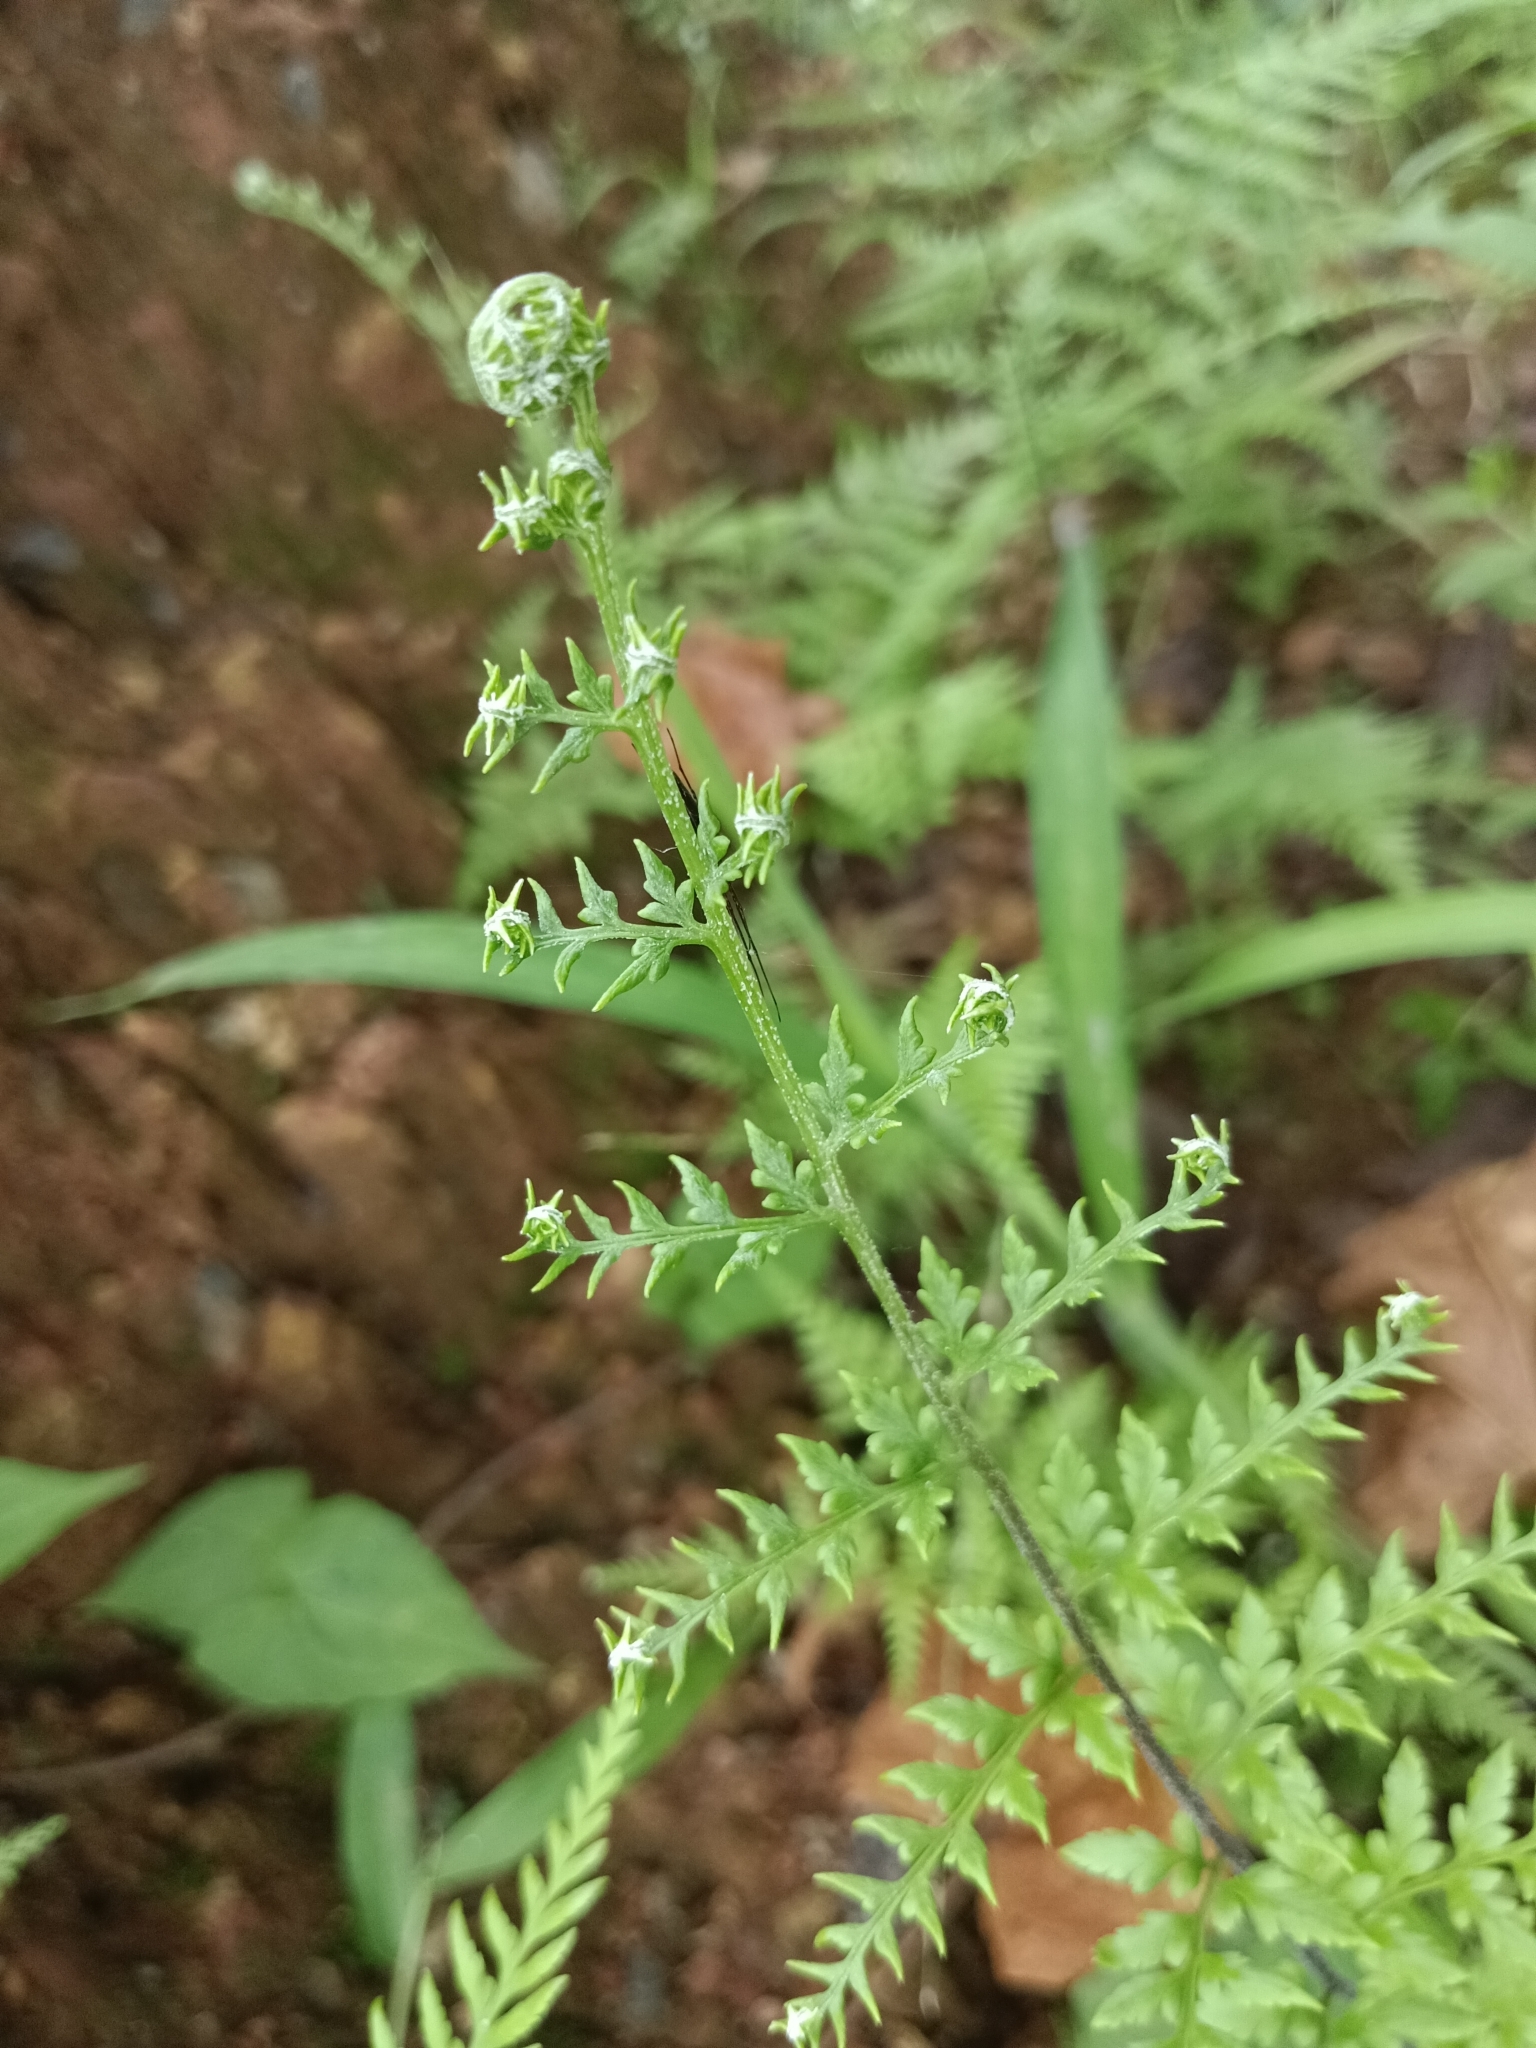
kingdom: Plantae
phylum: Tracheophyta
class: Polypodiopsida
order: Polypodiales
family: Pteridaceae
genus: Pityrogramma
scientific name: Pityrogramma calomelanos
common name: Dixie silverback fern
